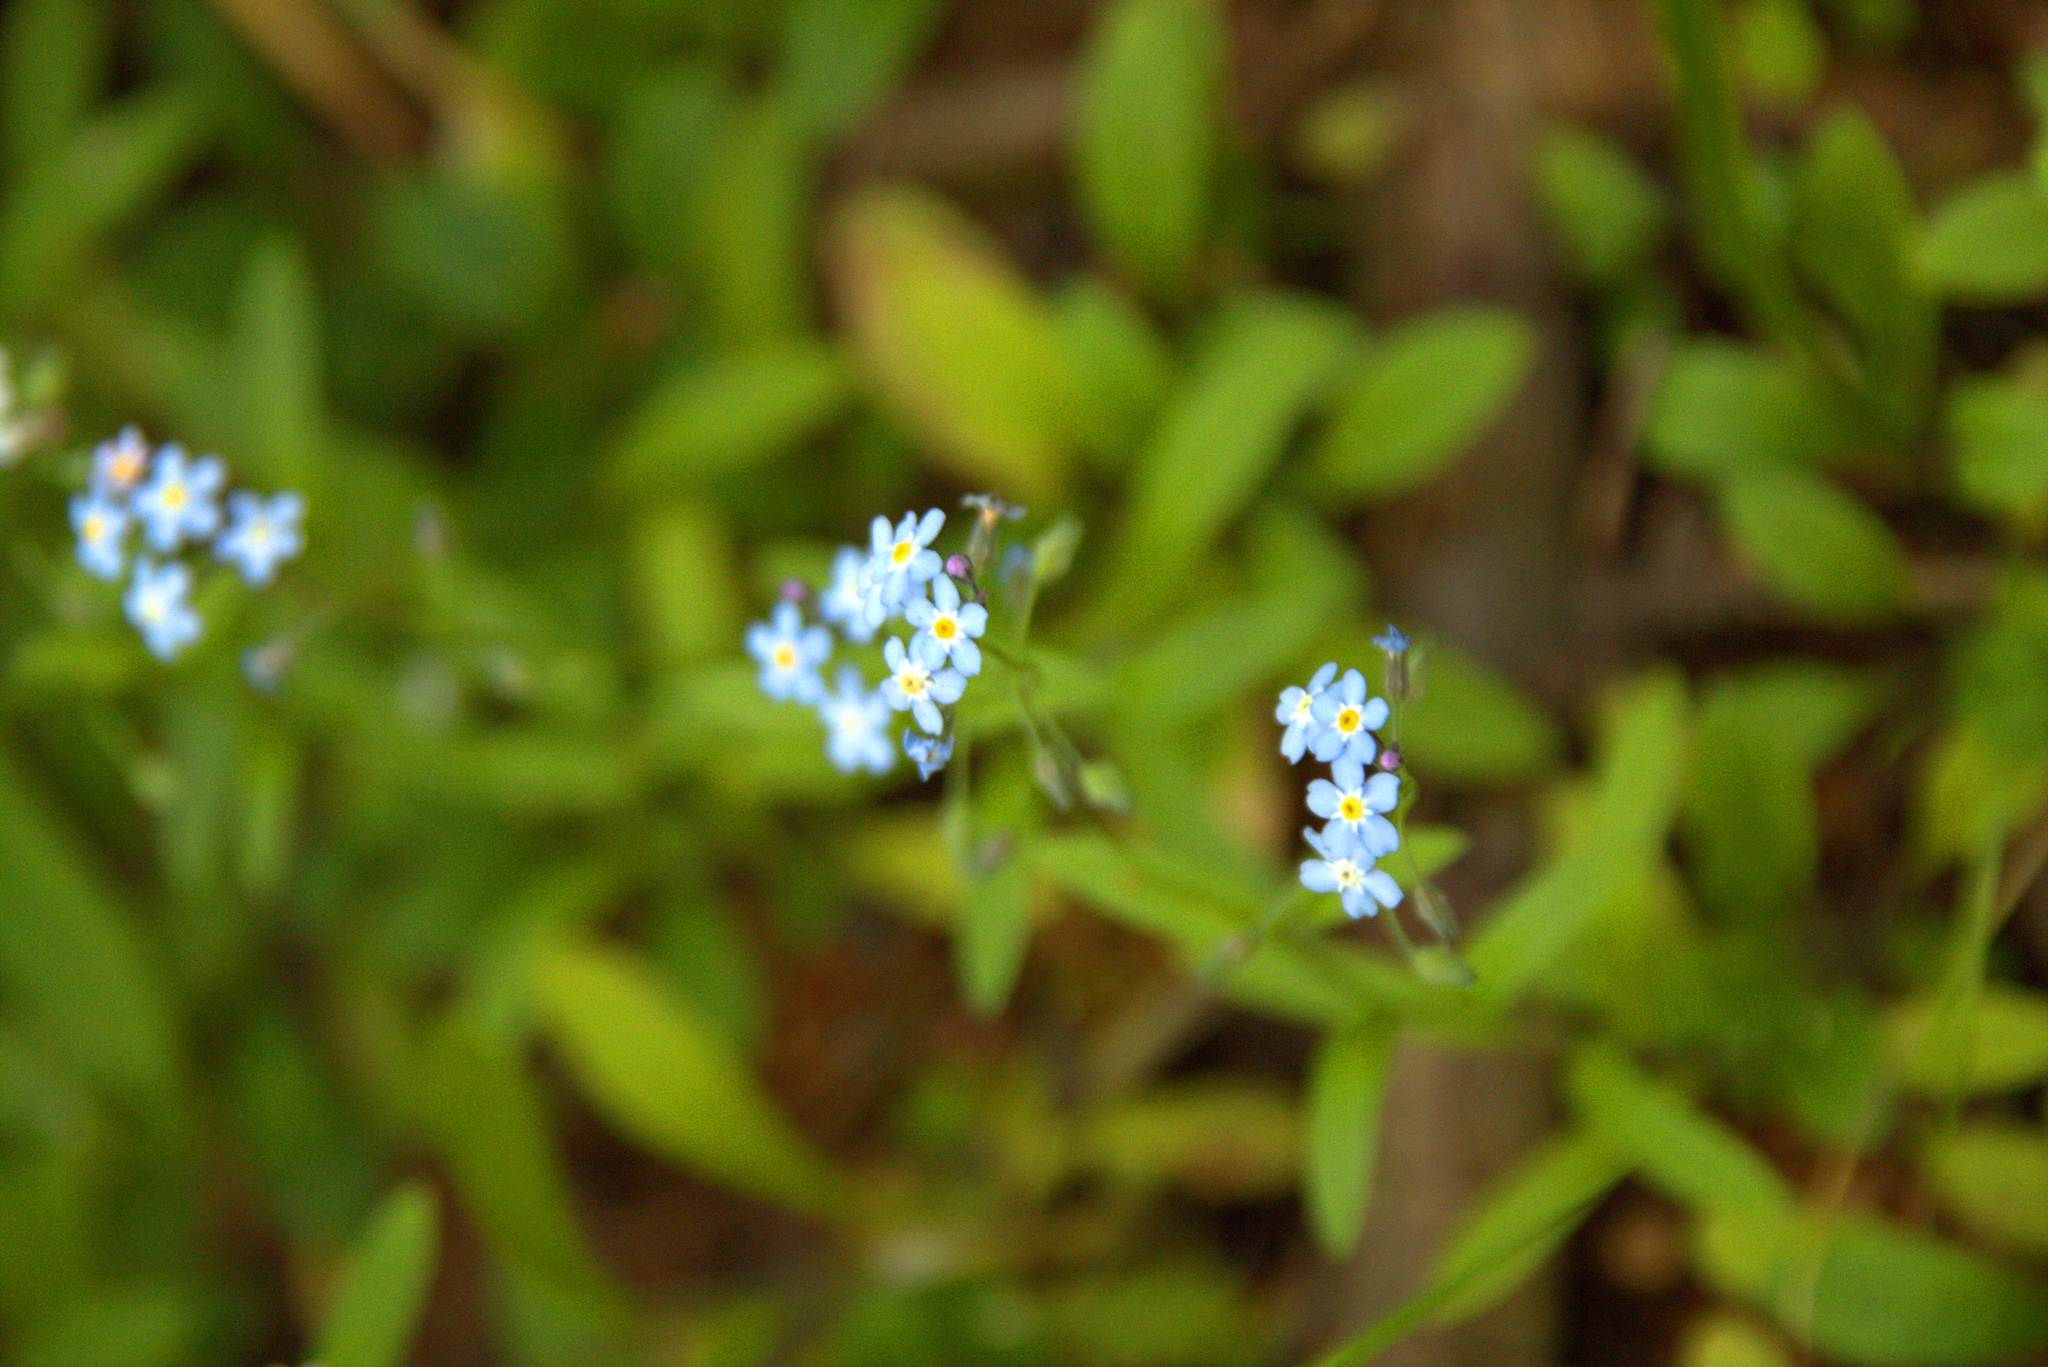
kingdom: Plantae
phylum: Tracheophyta
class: Magnoliopsida
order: Boraginales
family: Boraginaceae
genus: Myosotis
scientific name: Myosotis sylvatica
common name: Wood forget-me-not
